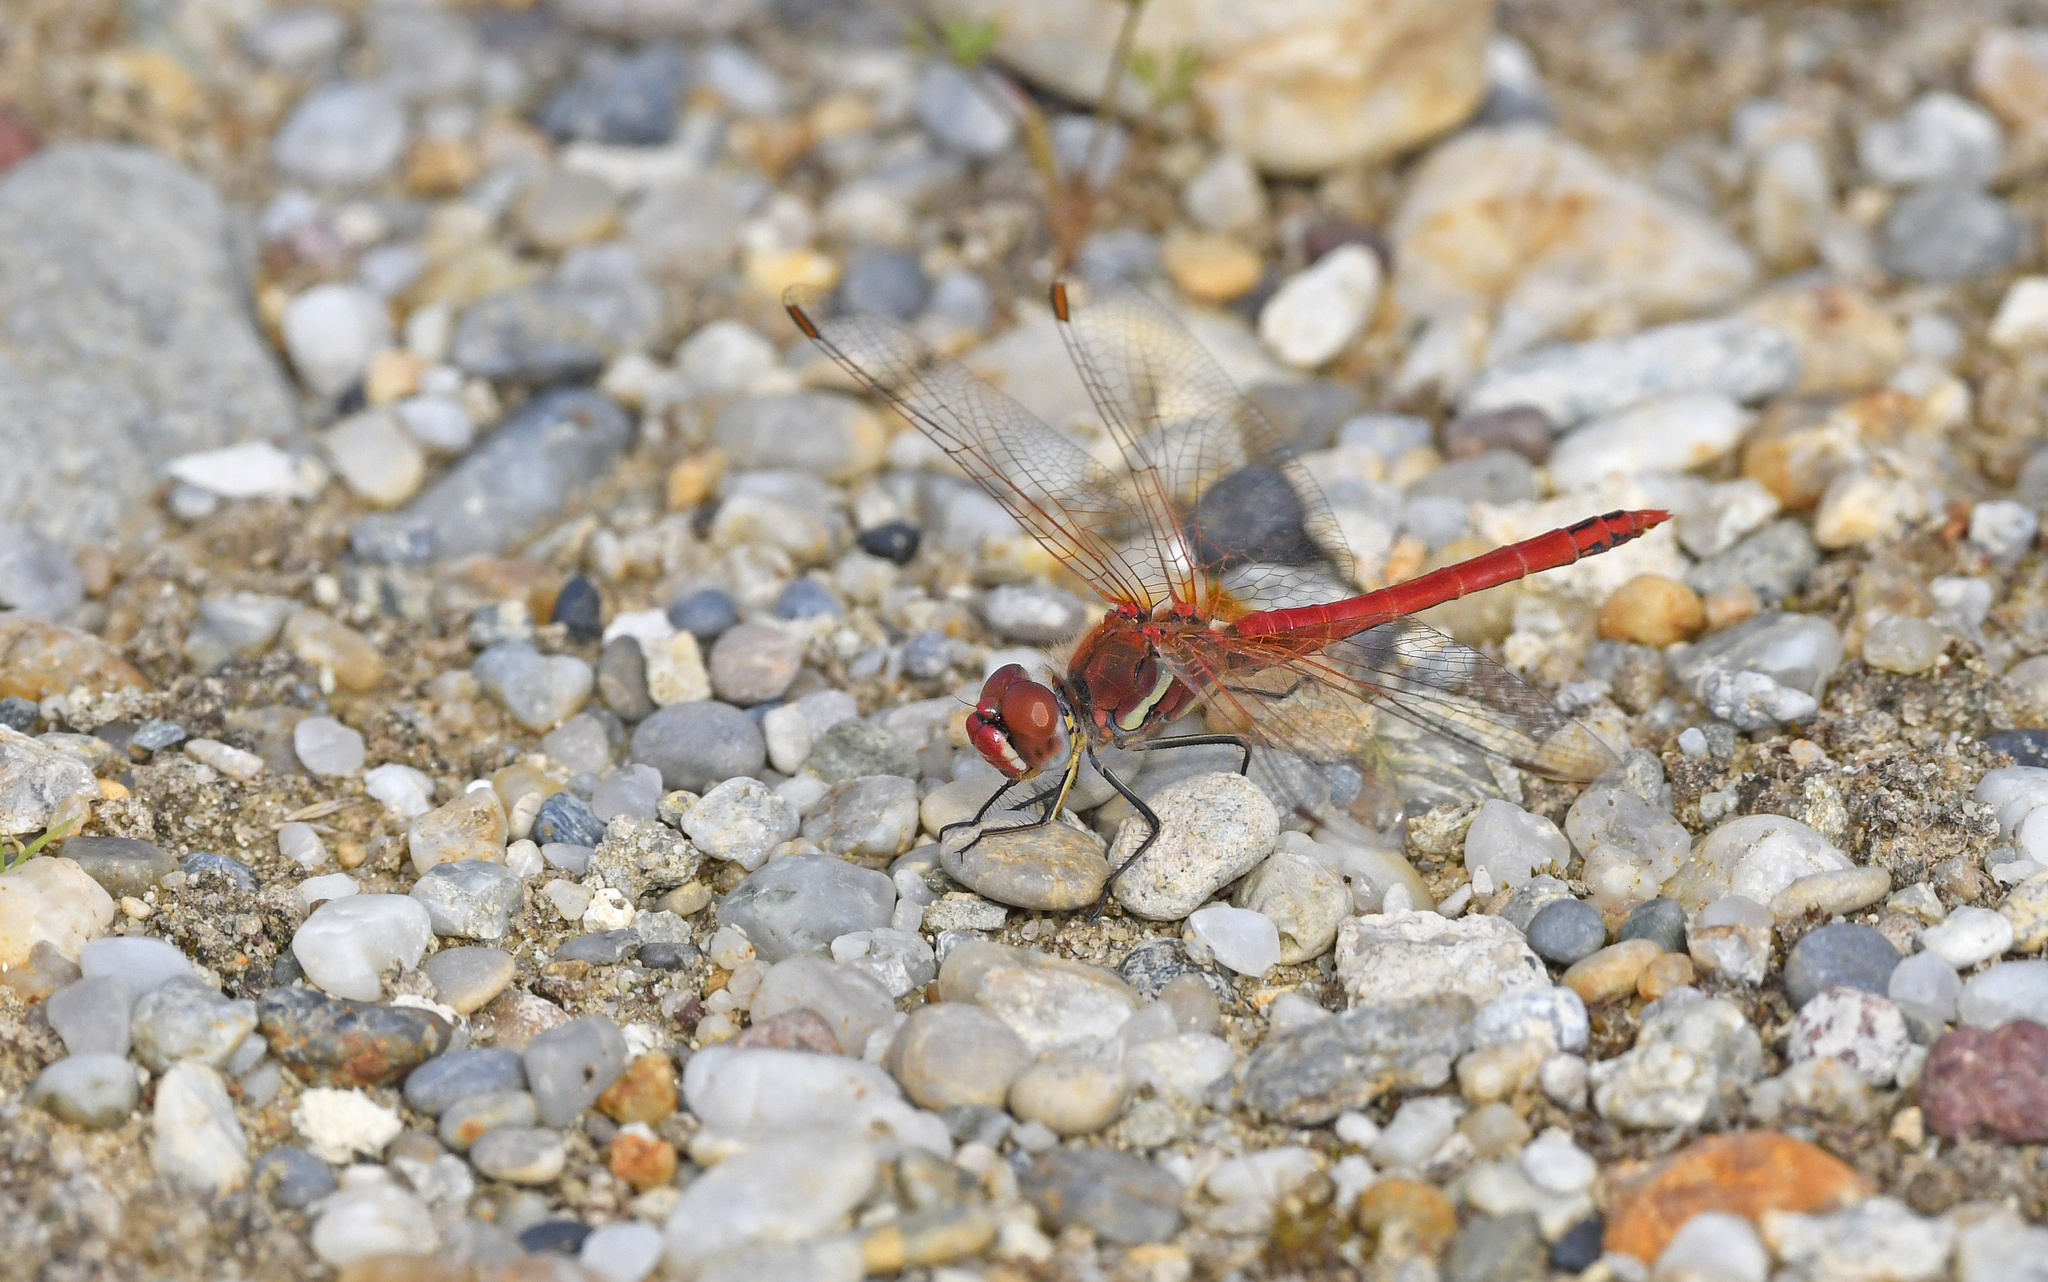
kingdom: Animalia
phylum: Arthropoda
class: Insecta
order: Odonata
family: Libellulidae
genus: Sympetrum
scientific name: Sympetrum fonscolombii
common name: Red-veined darter
